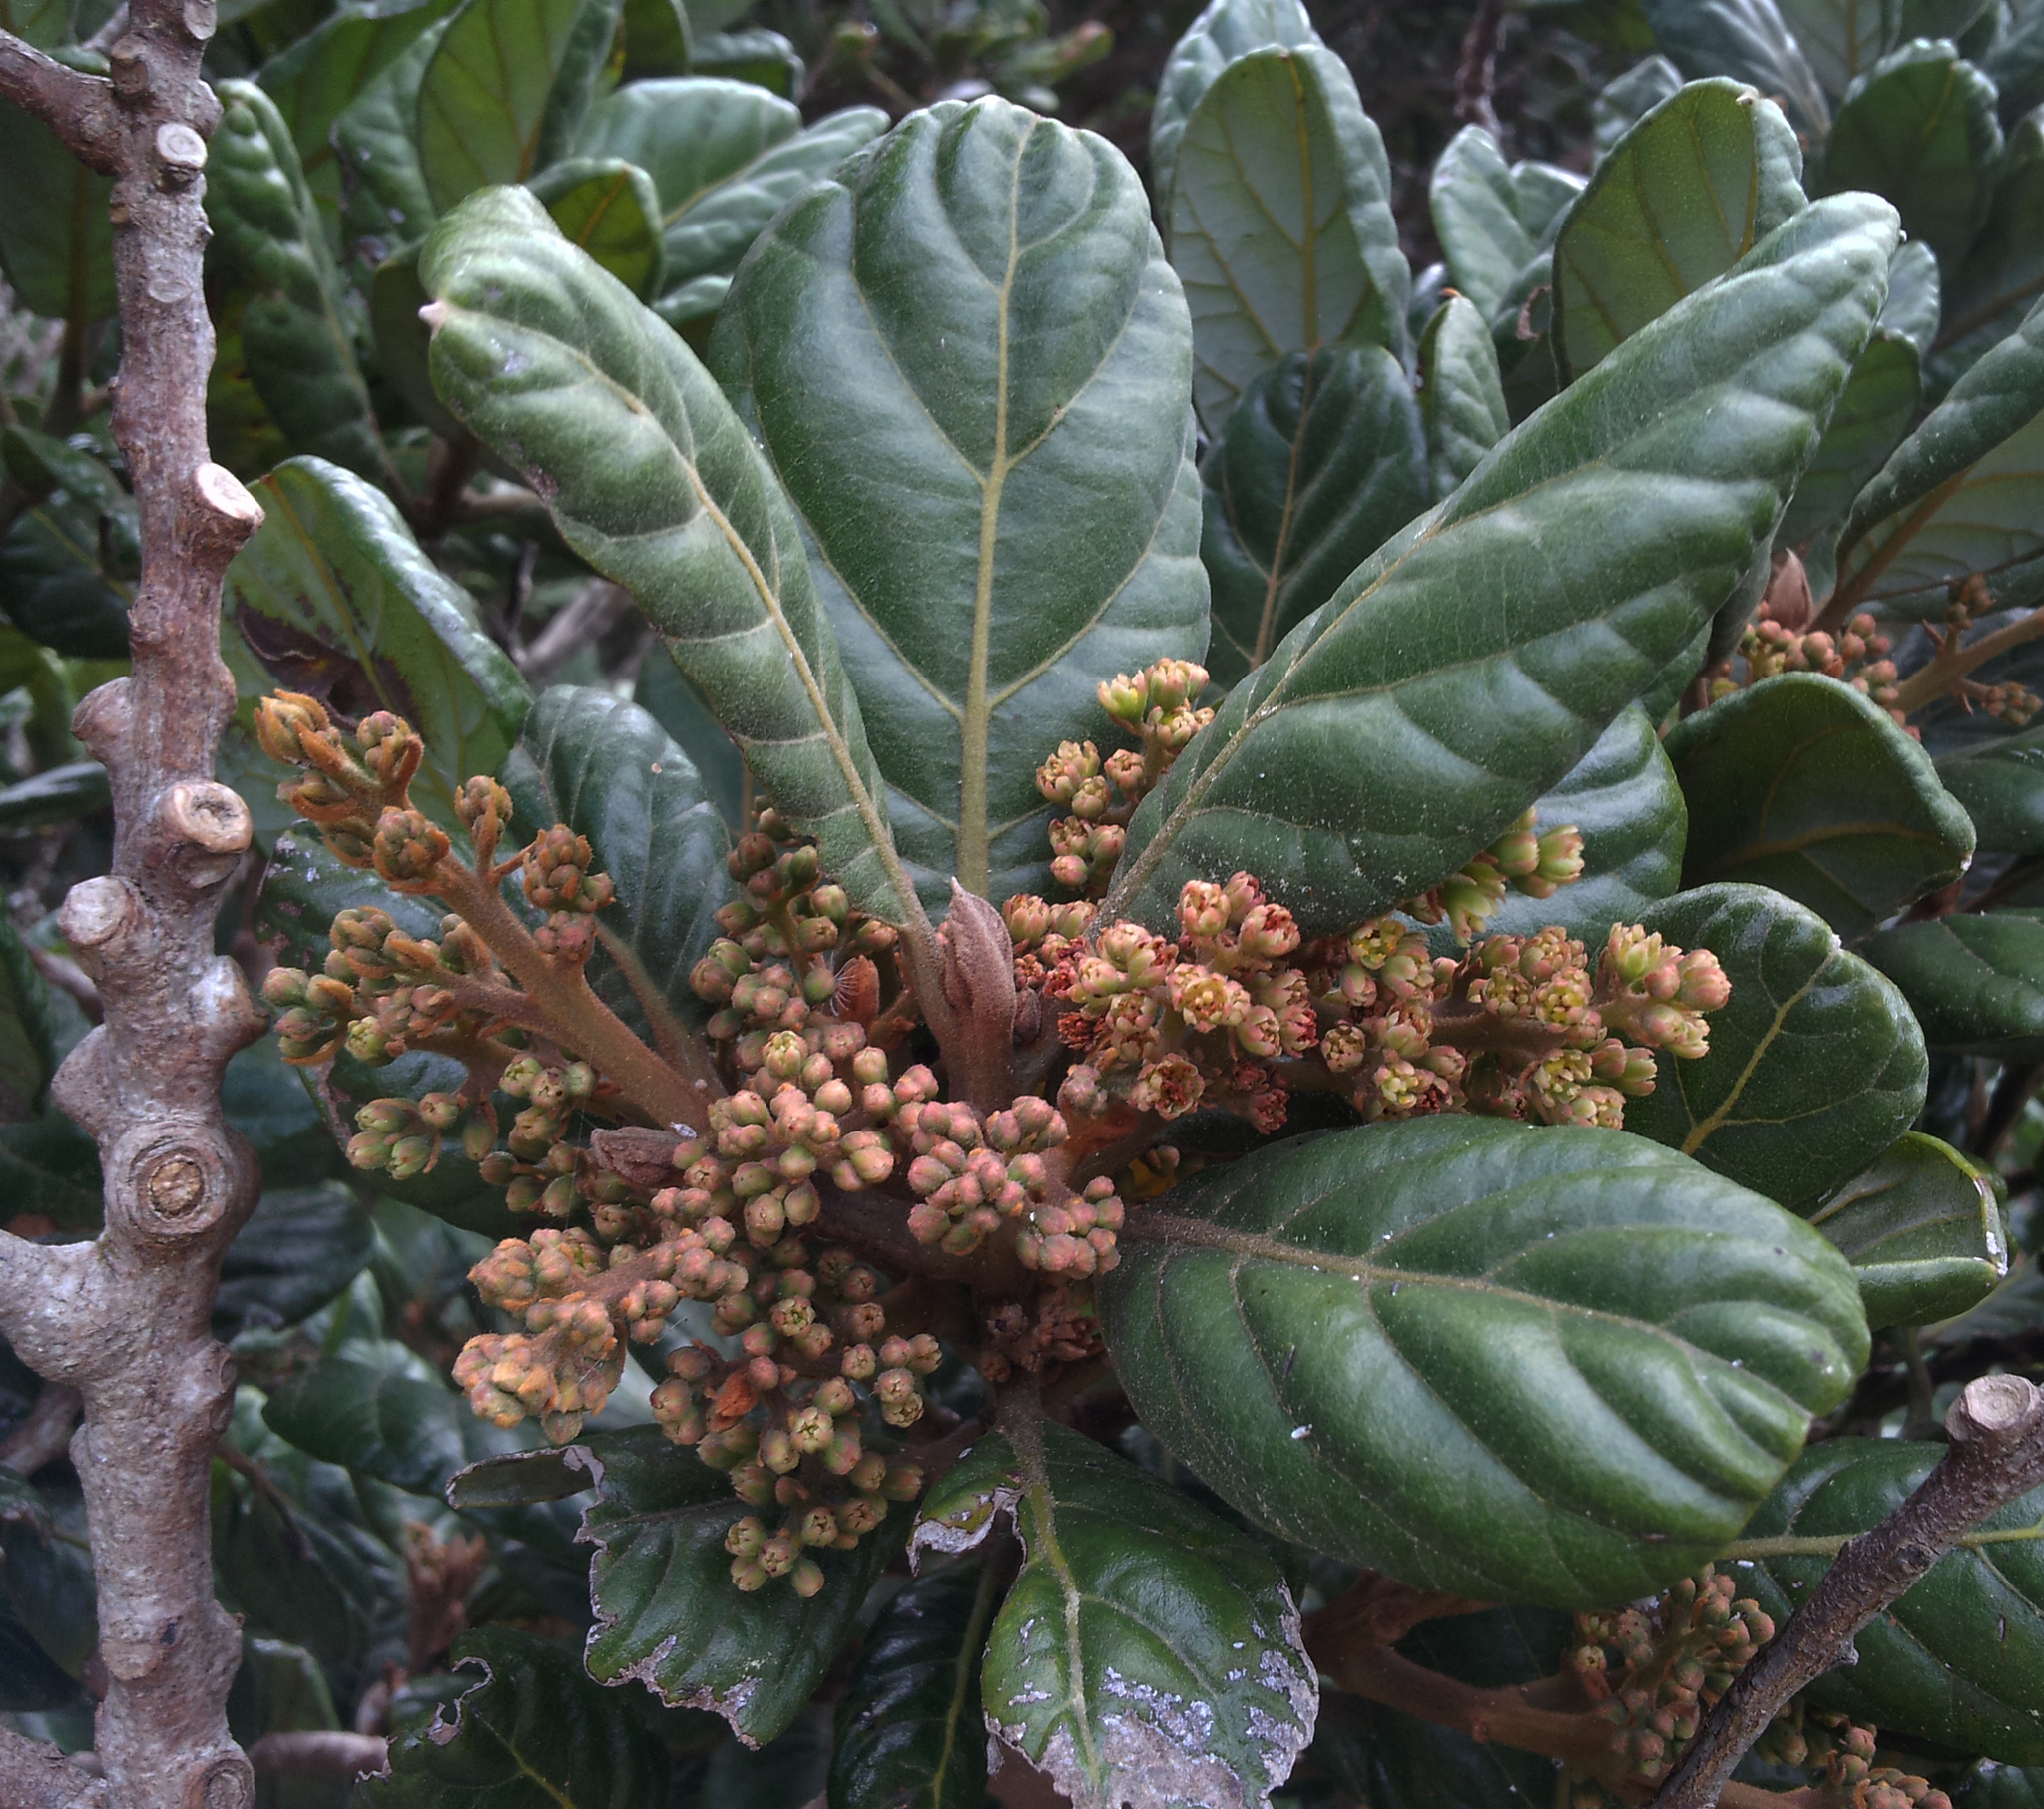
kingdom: Plantae
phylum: Tracheophyta
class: Magnoliopsida
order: Laurales
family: Lauraceae
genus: Beilschmiedia
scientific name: Beilschmiedia tarairi
